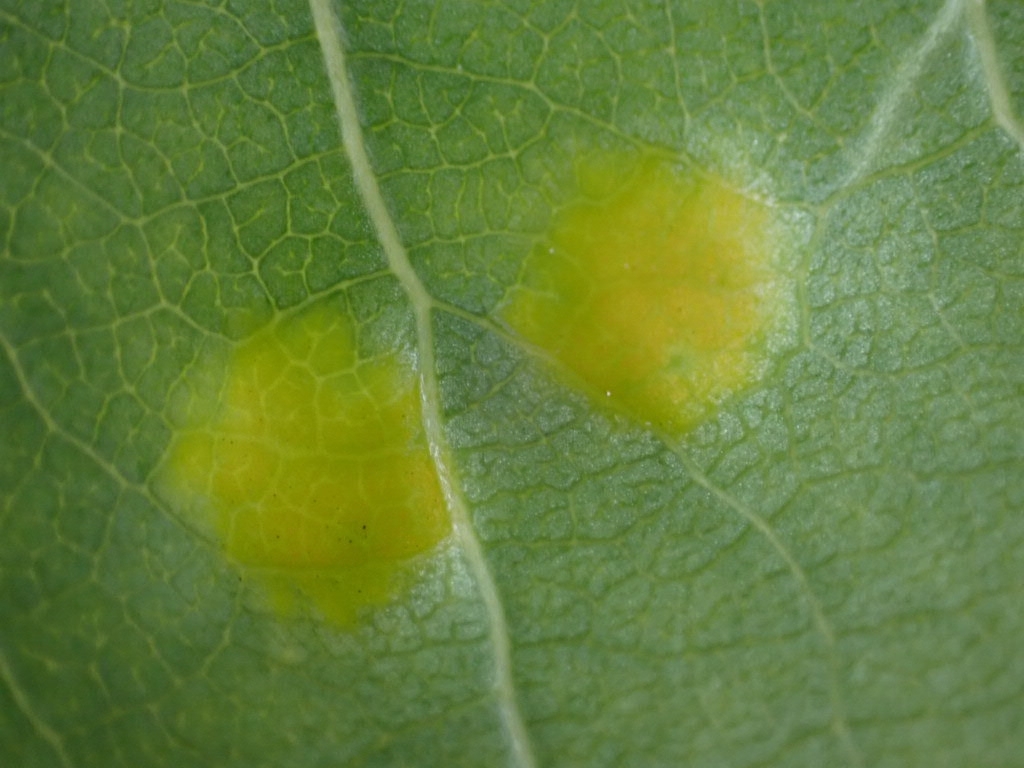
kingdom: Fungi
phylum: Ascomycota
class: Taphrinomycetes
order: Taphrinales
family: Taphrinaceae
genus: Taphrina
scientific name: Taphrina populina
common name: Poplar leaf curl
